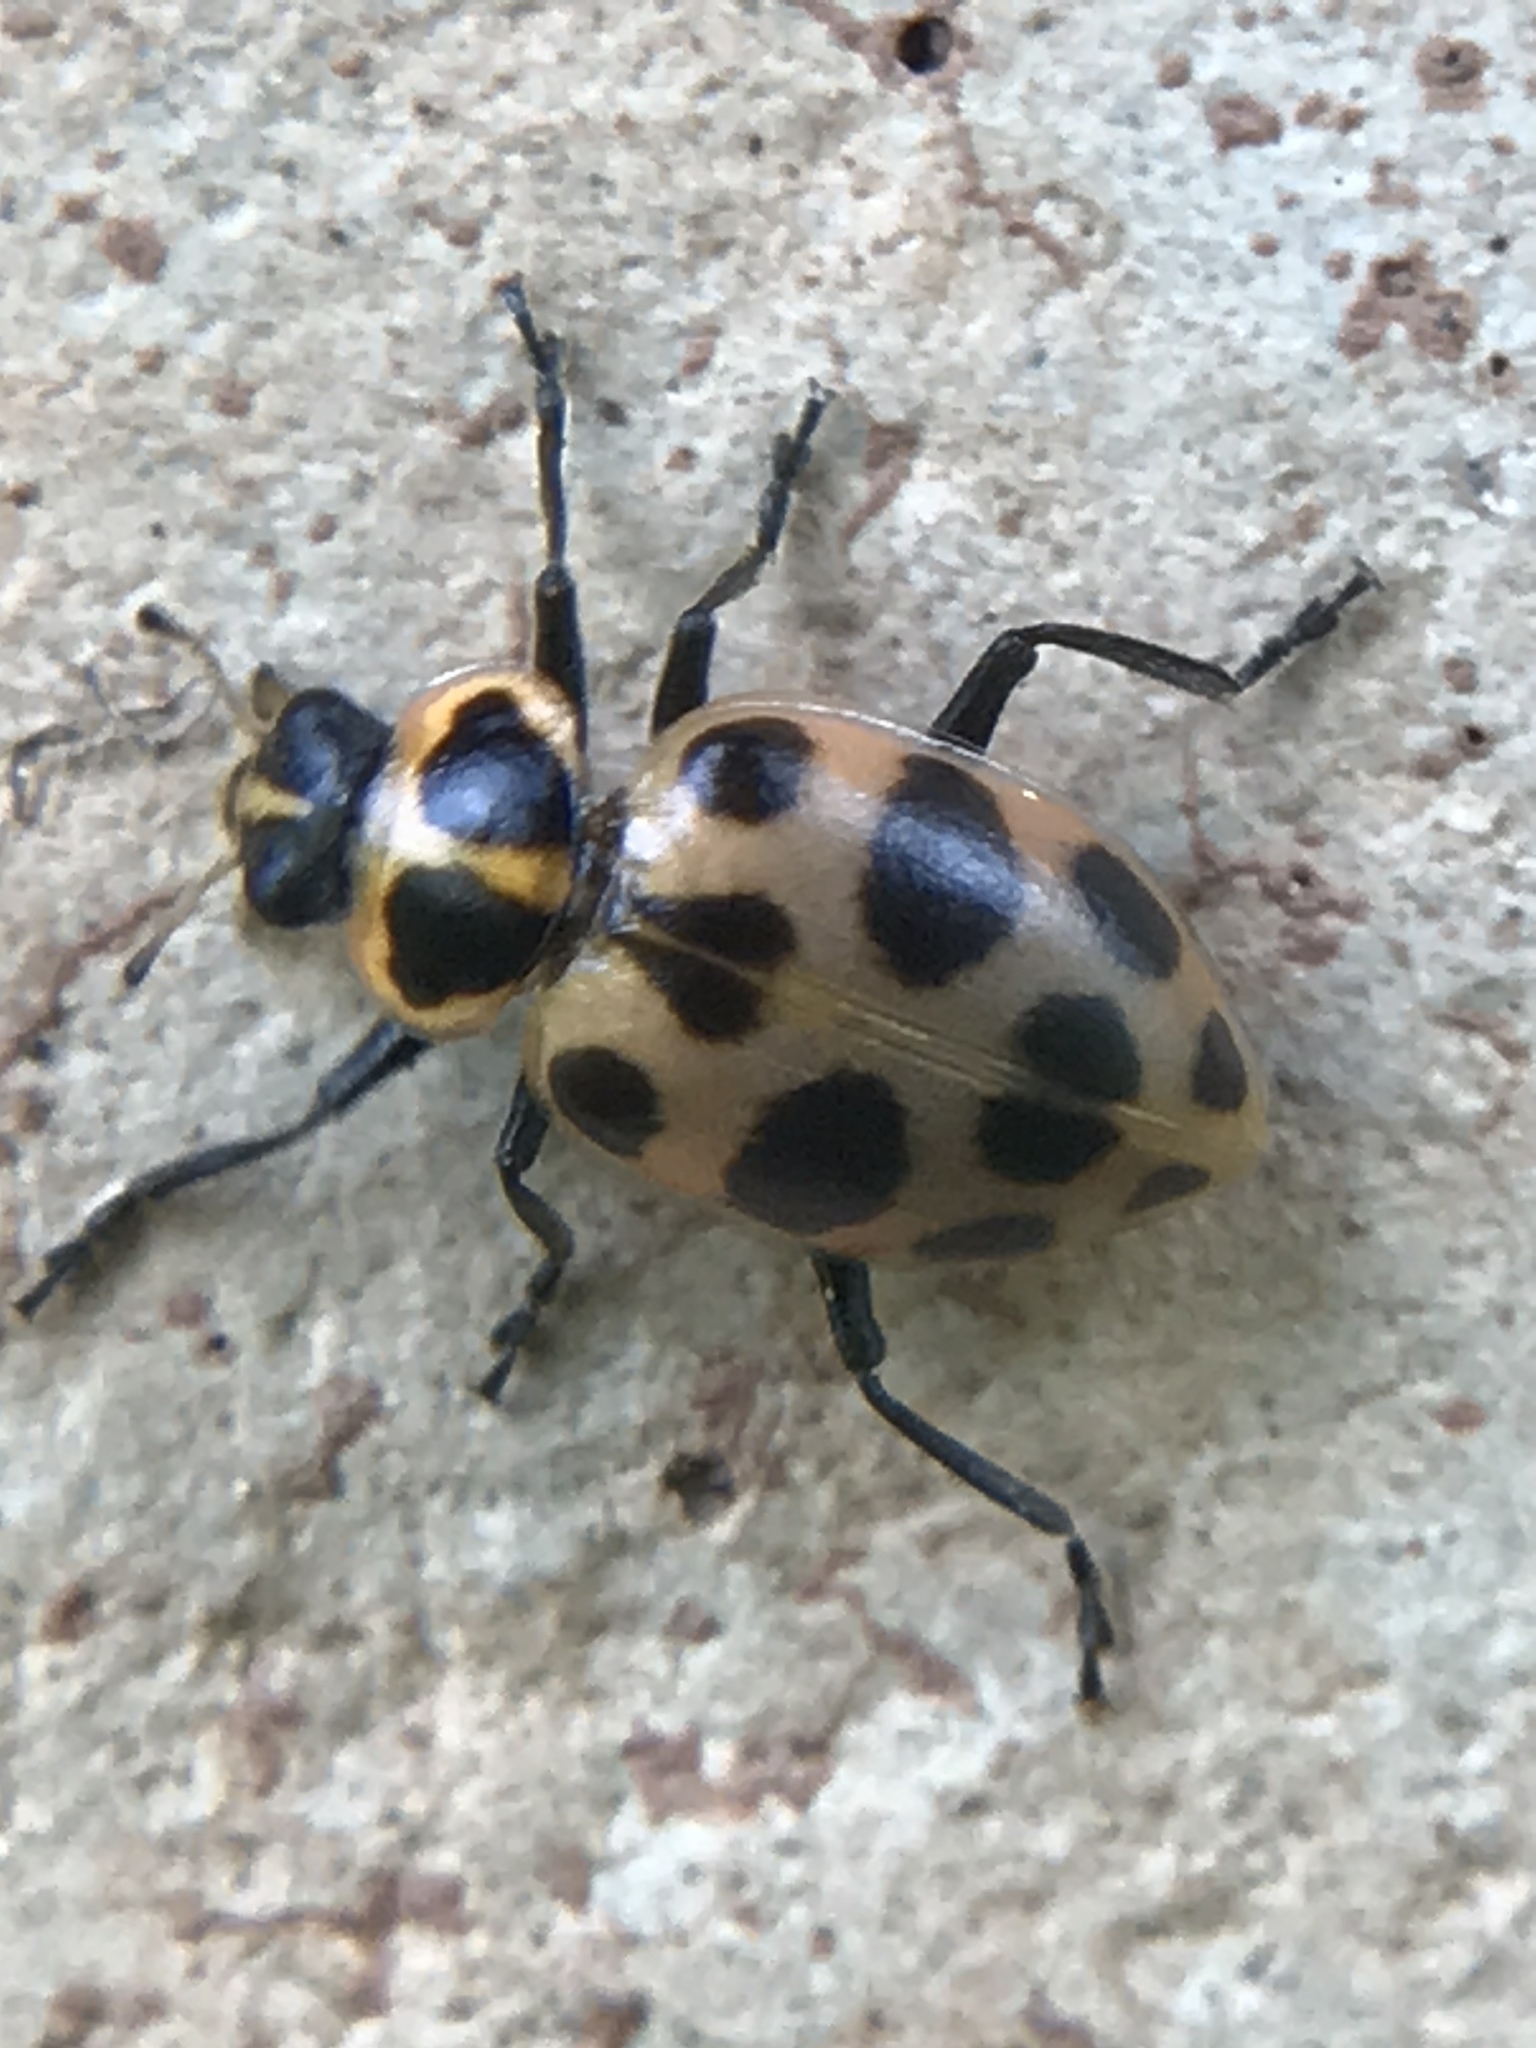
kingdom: Animalia
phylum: Arthropoda
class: Insecta
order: Coleoptera
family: Coccinellidae
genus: Coleomegilla
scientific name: Coleomegilla maculata
